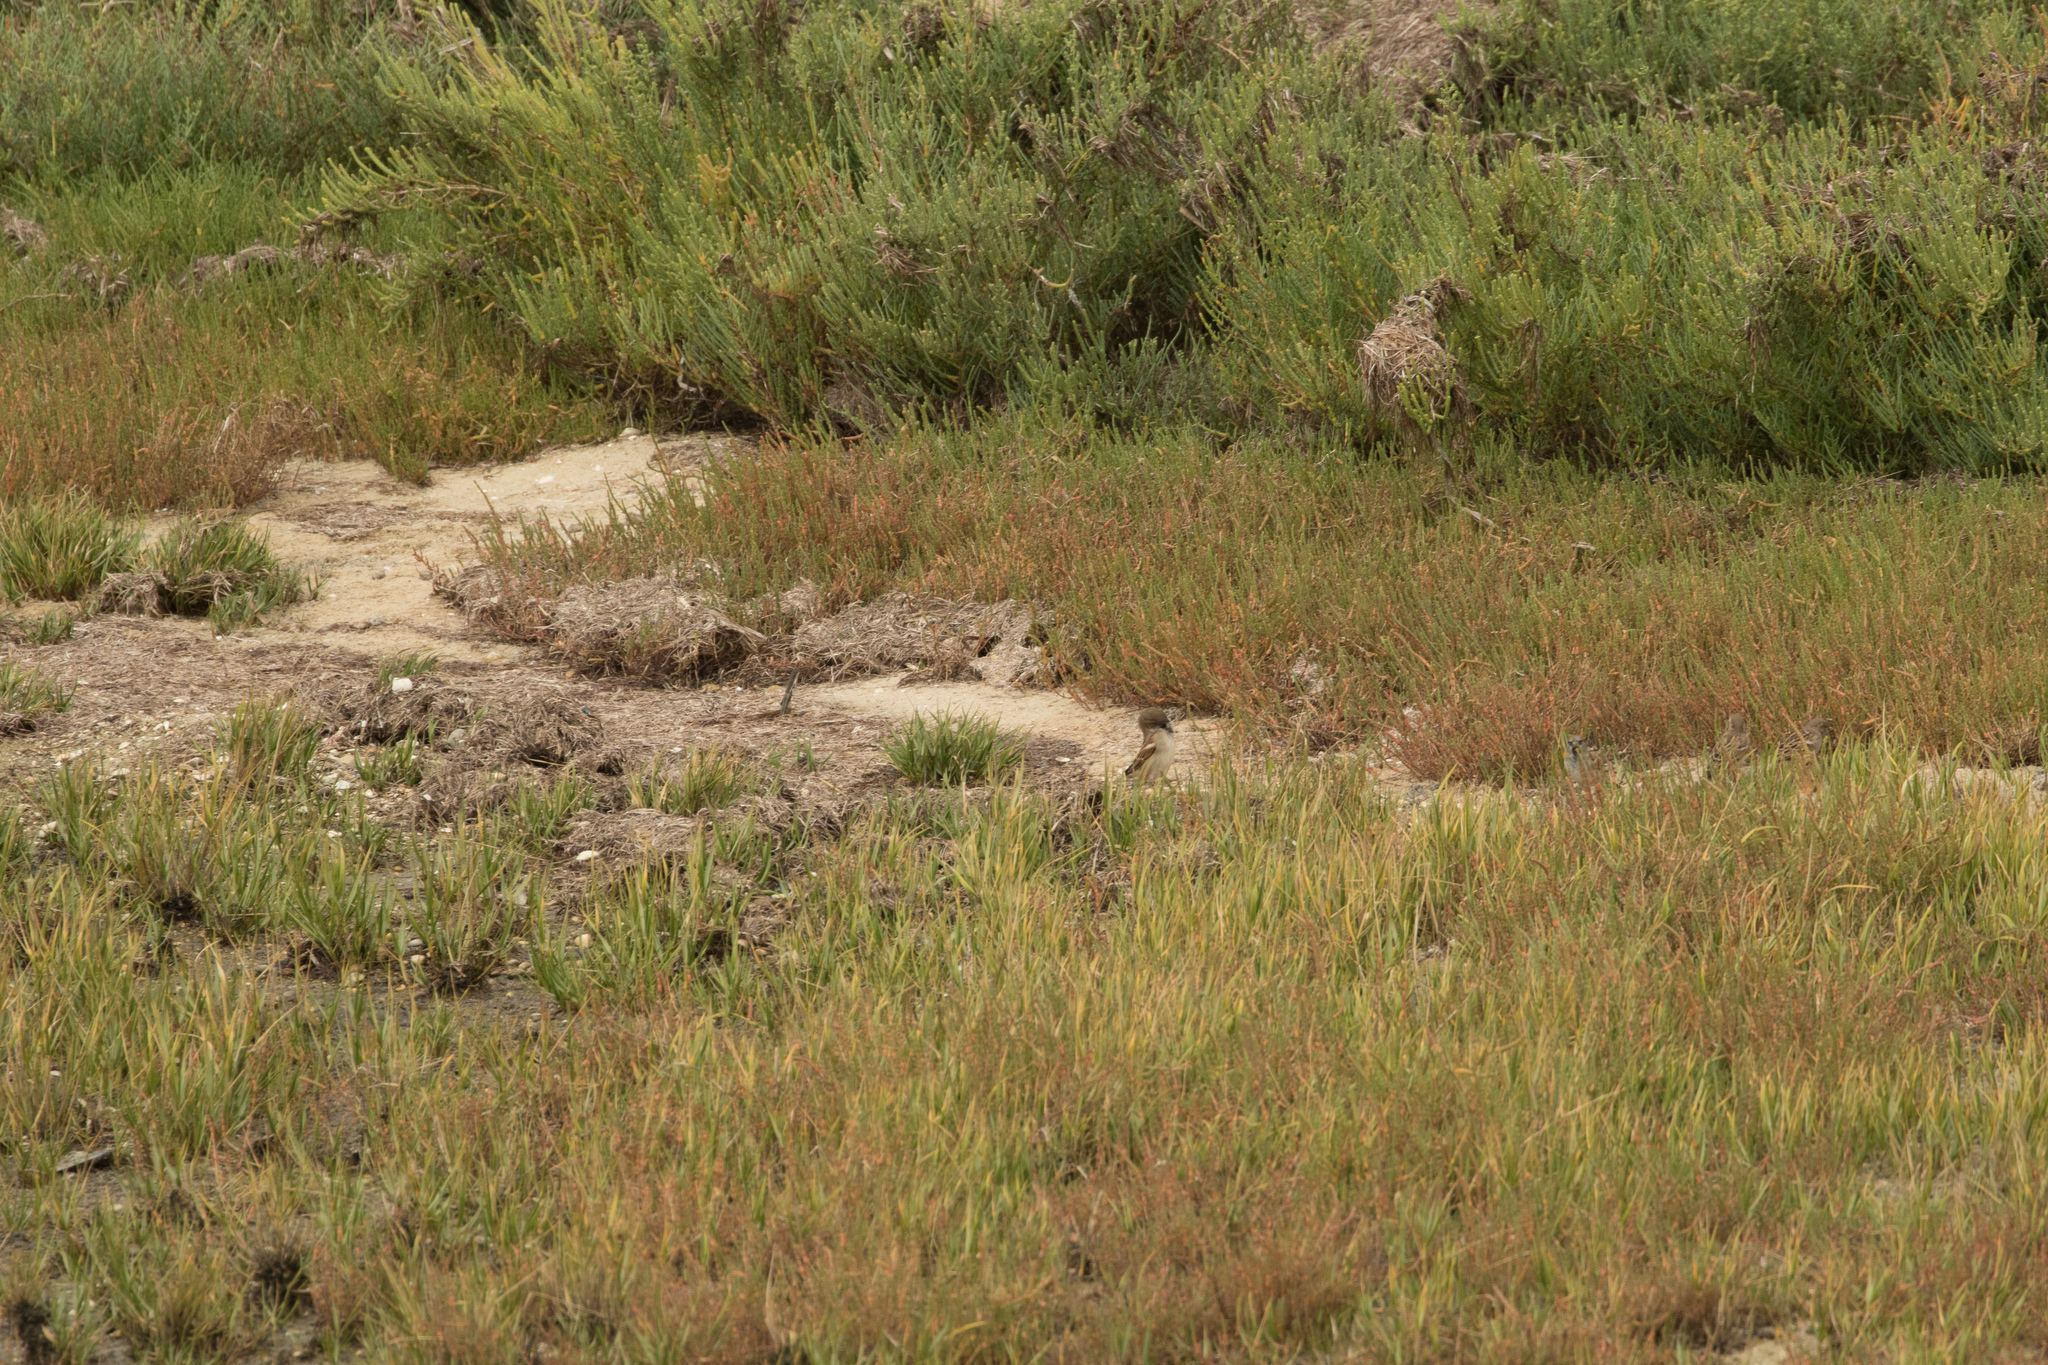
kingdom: Animalia
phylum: Chordata
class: Aves
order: Passeriformes
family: Passeridae
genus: Passer
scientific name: Passer domesticus
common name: House sparrow
